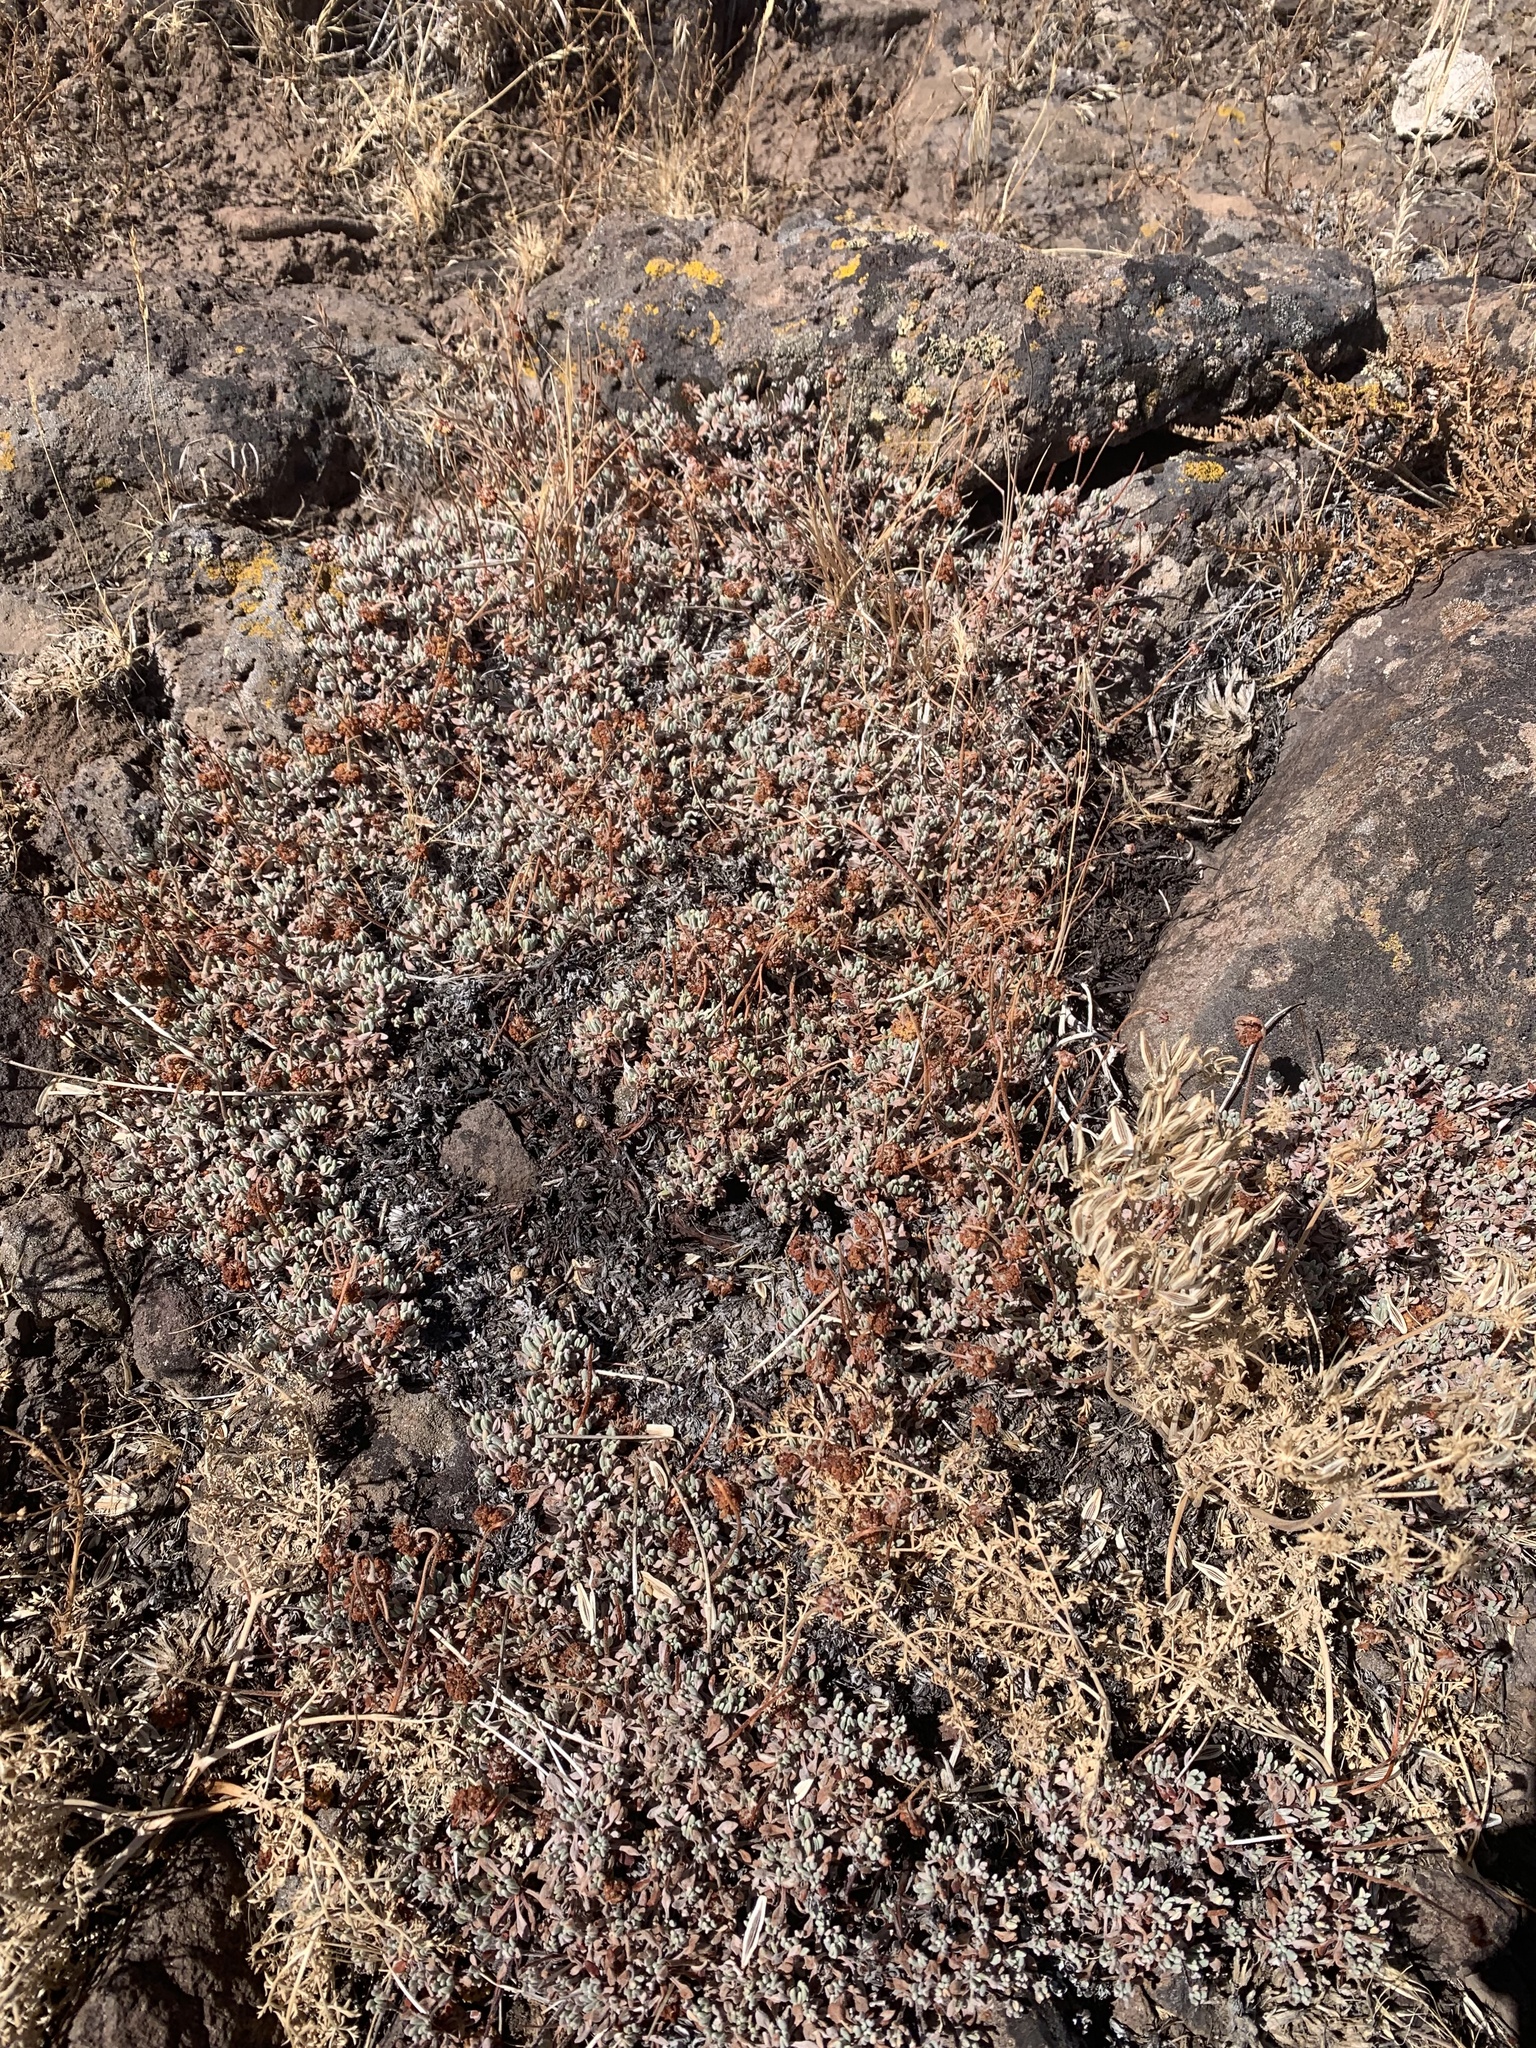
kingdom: Plantae
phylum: Tracheophyta
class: Magnoliopsida
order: Caryophyllales
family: Polygonaceae
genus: Eriogonum
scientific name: Eriogonum caespitosum
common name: Matted wild buckwheat
